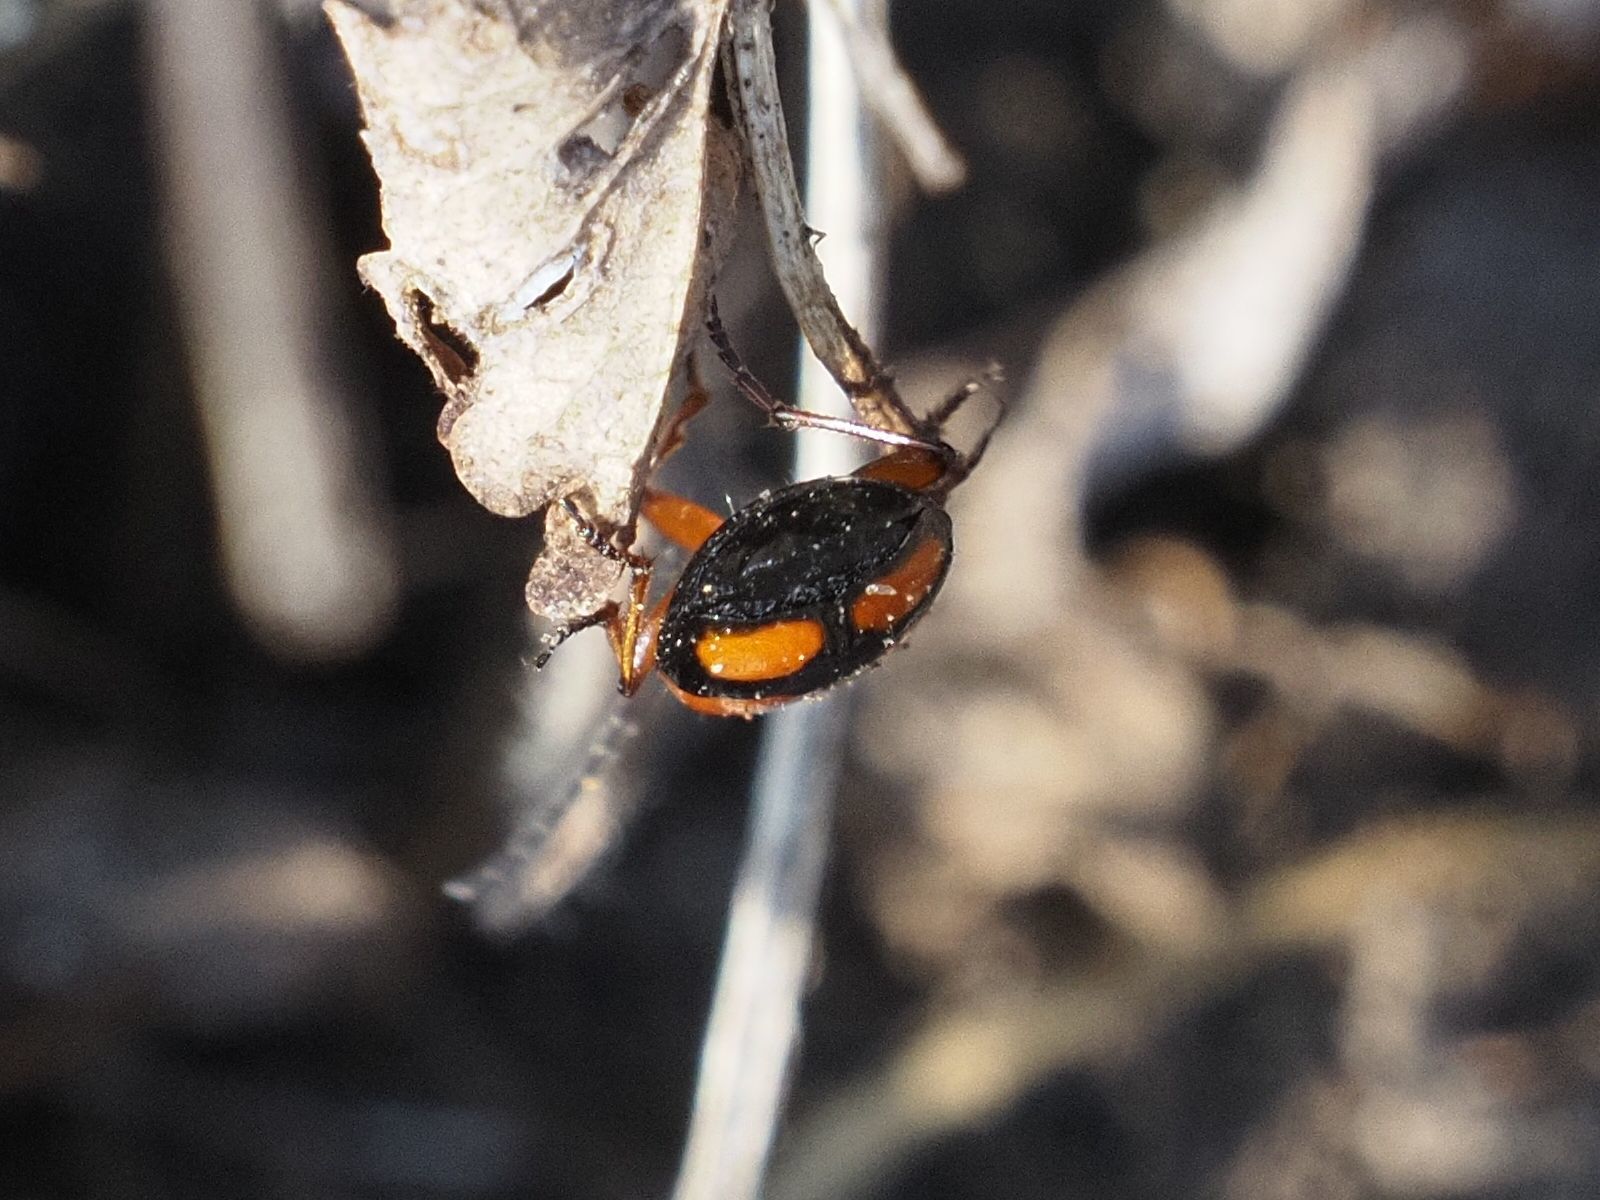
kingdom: Animalia
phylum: Arthropoda
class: Insecta
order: Coleoptera
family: Carabidae
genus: Lebia
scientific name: Lebia cruxminor
